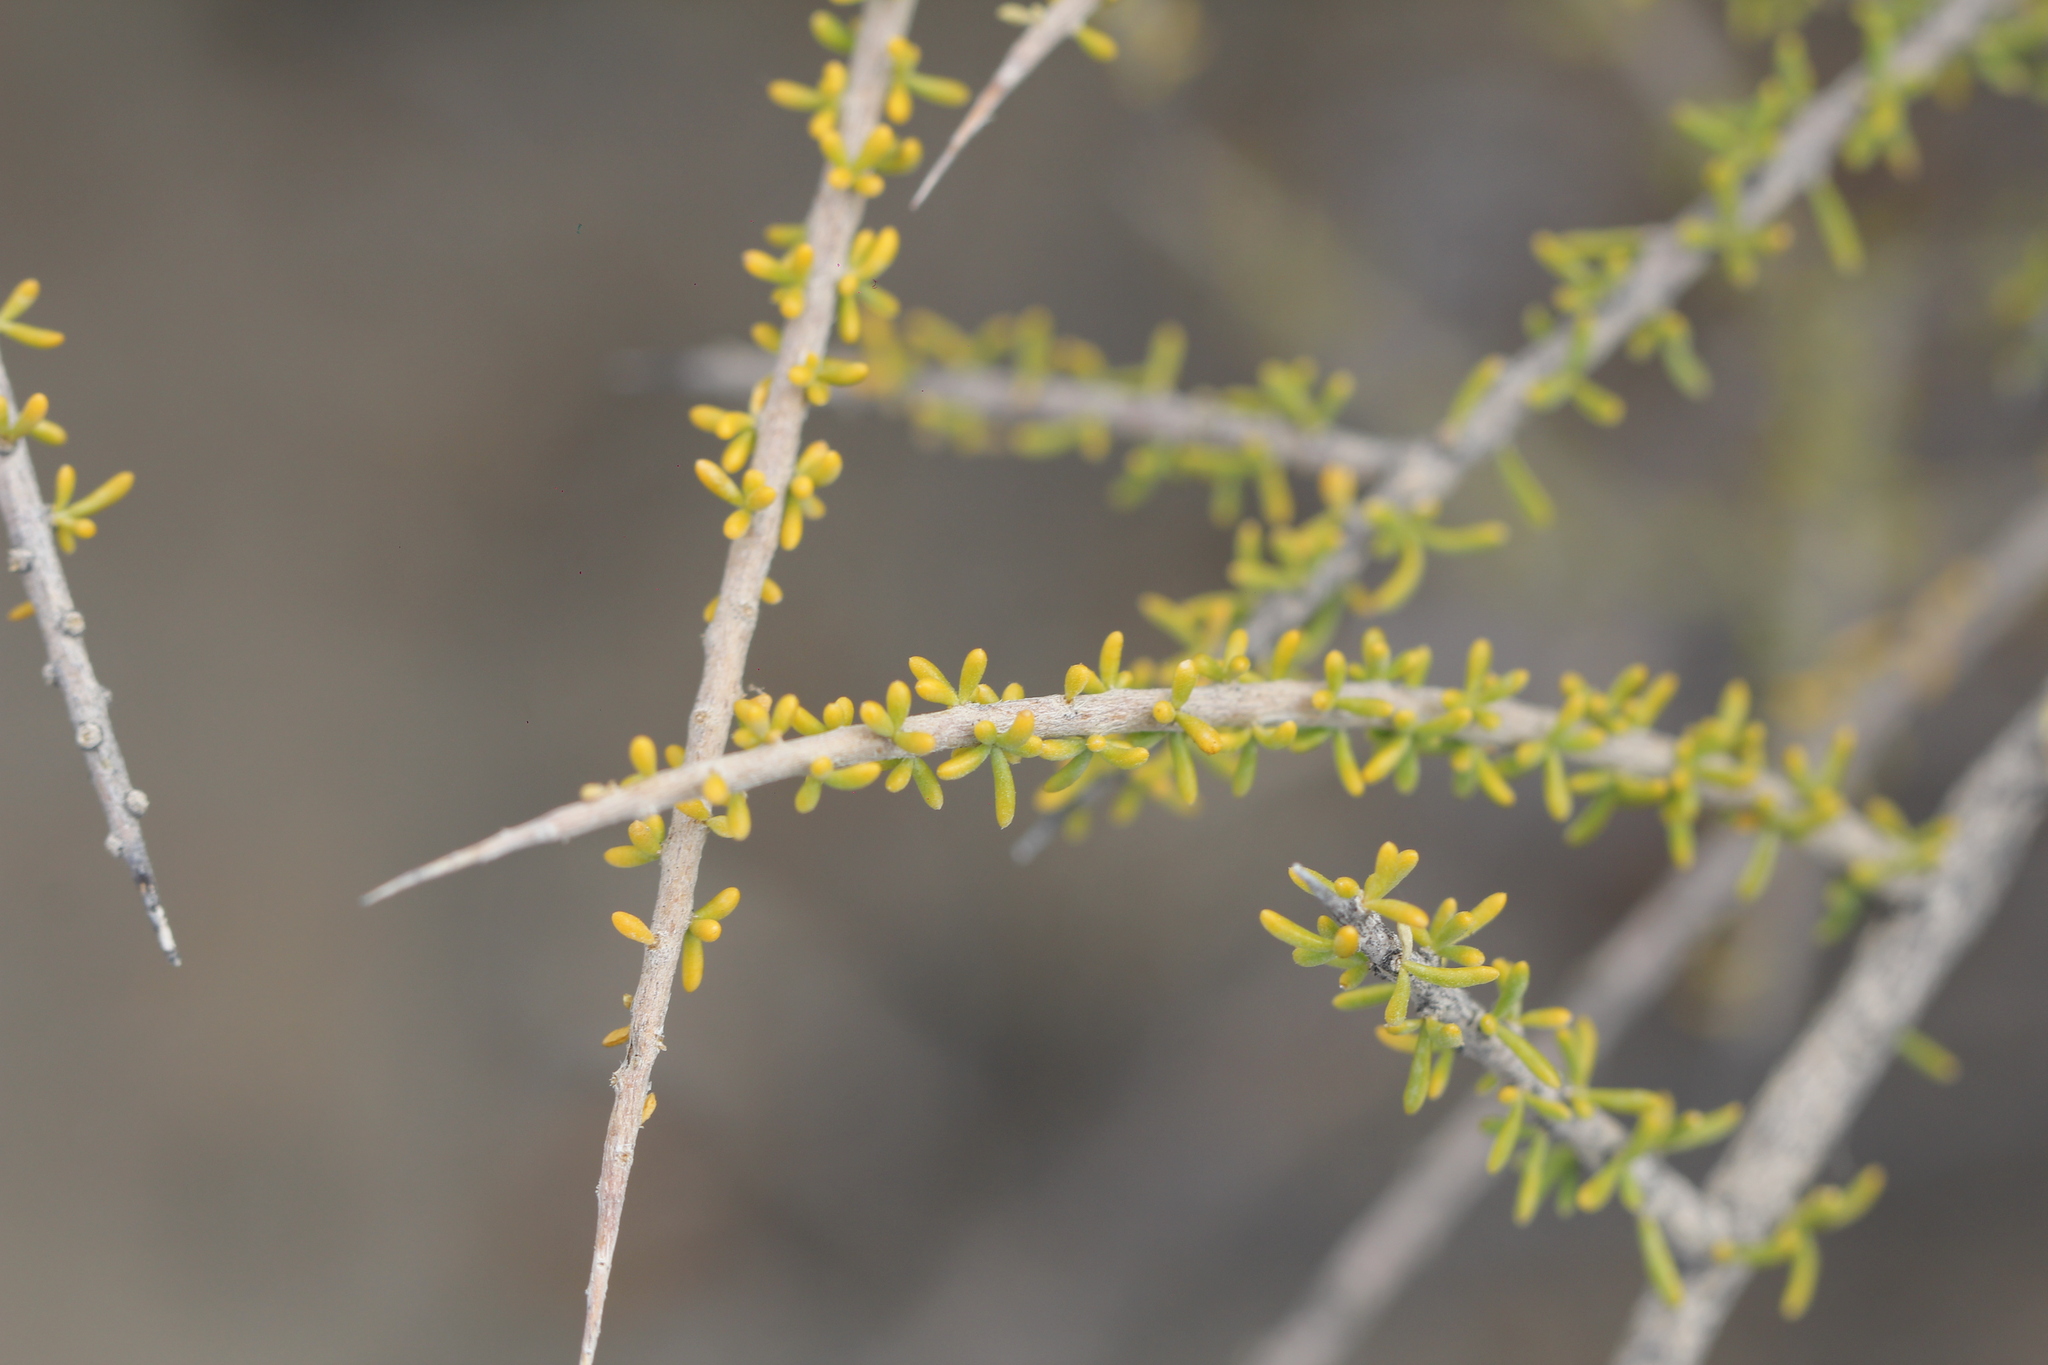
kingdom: Plantae
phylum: Tracheophyta
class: Magnoliopsida
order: Solanales
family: Solanaceae
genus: Lycium
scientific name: Lycium infaustum
